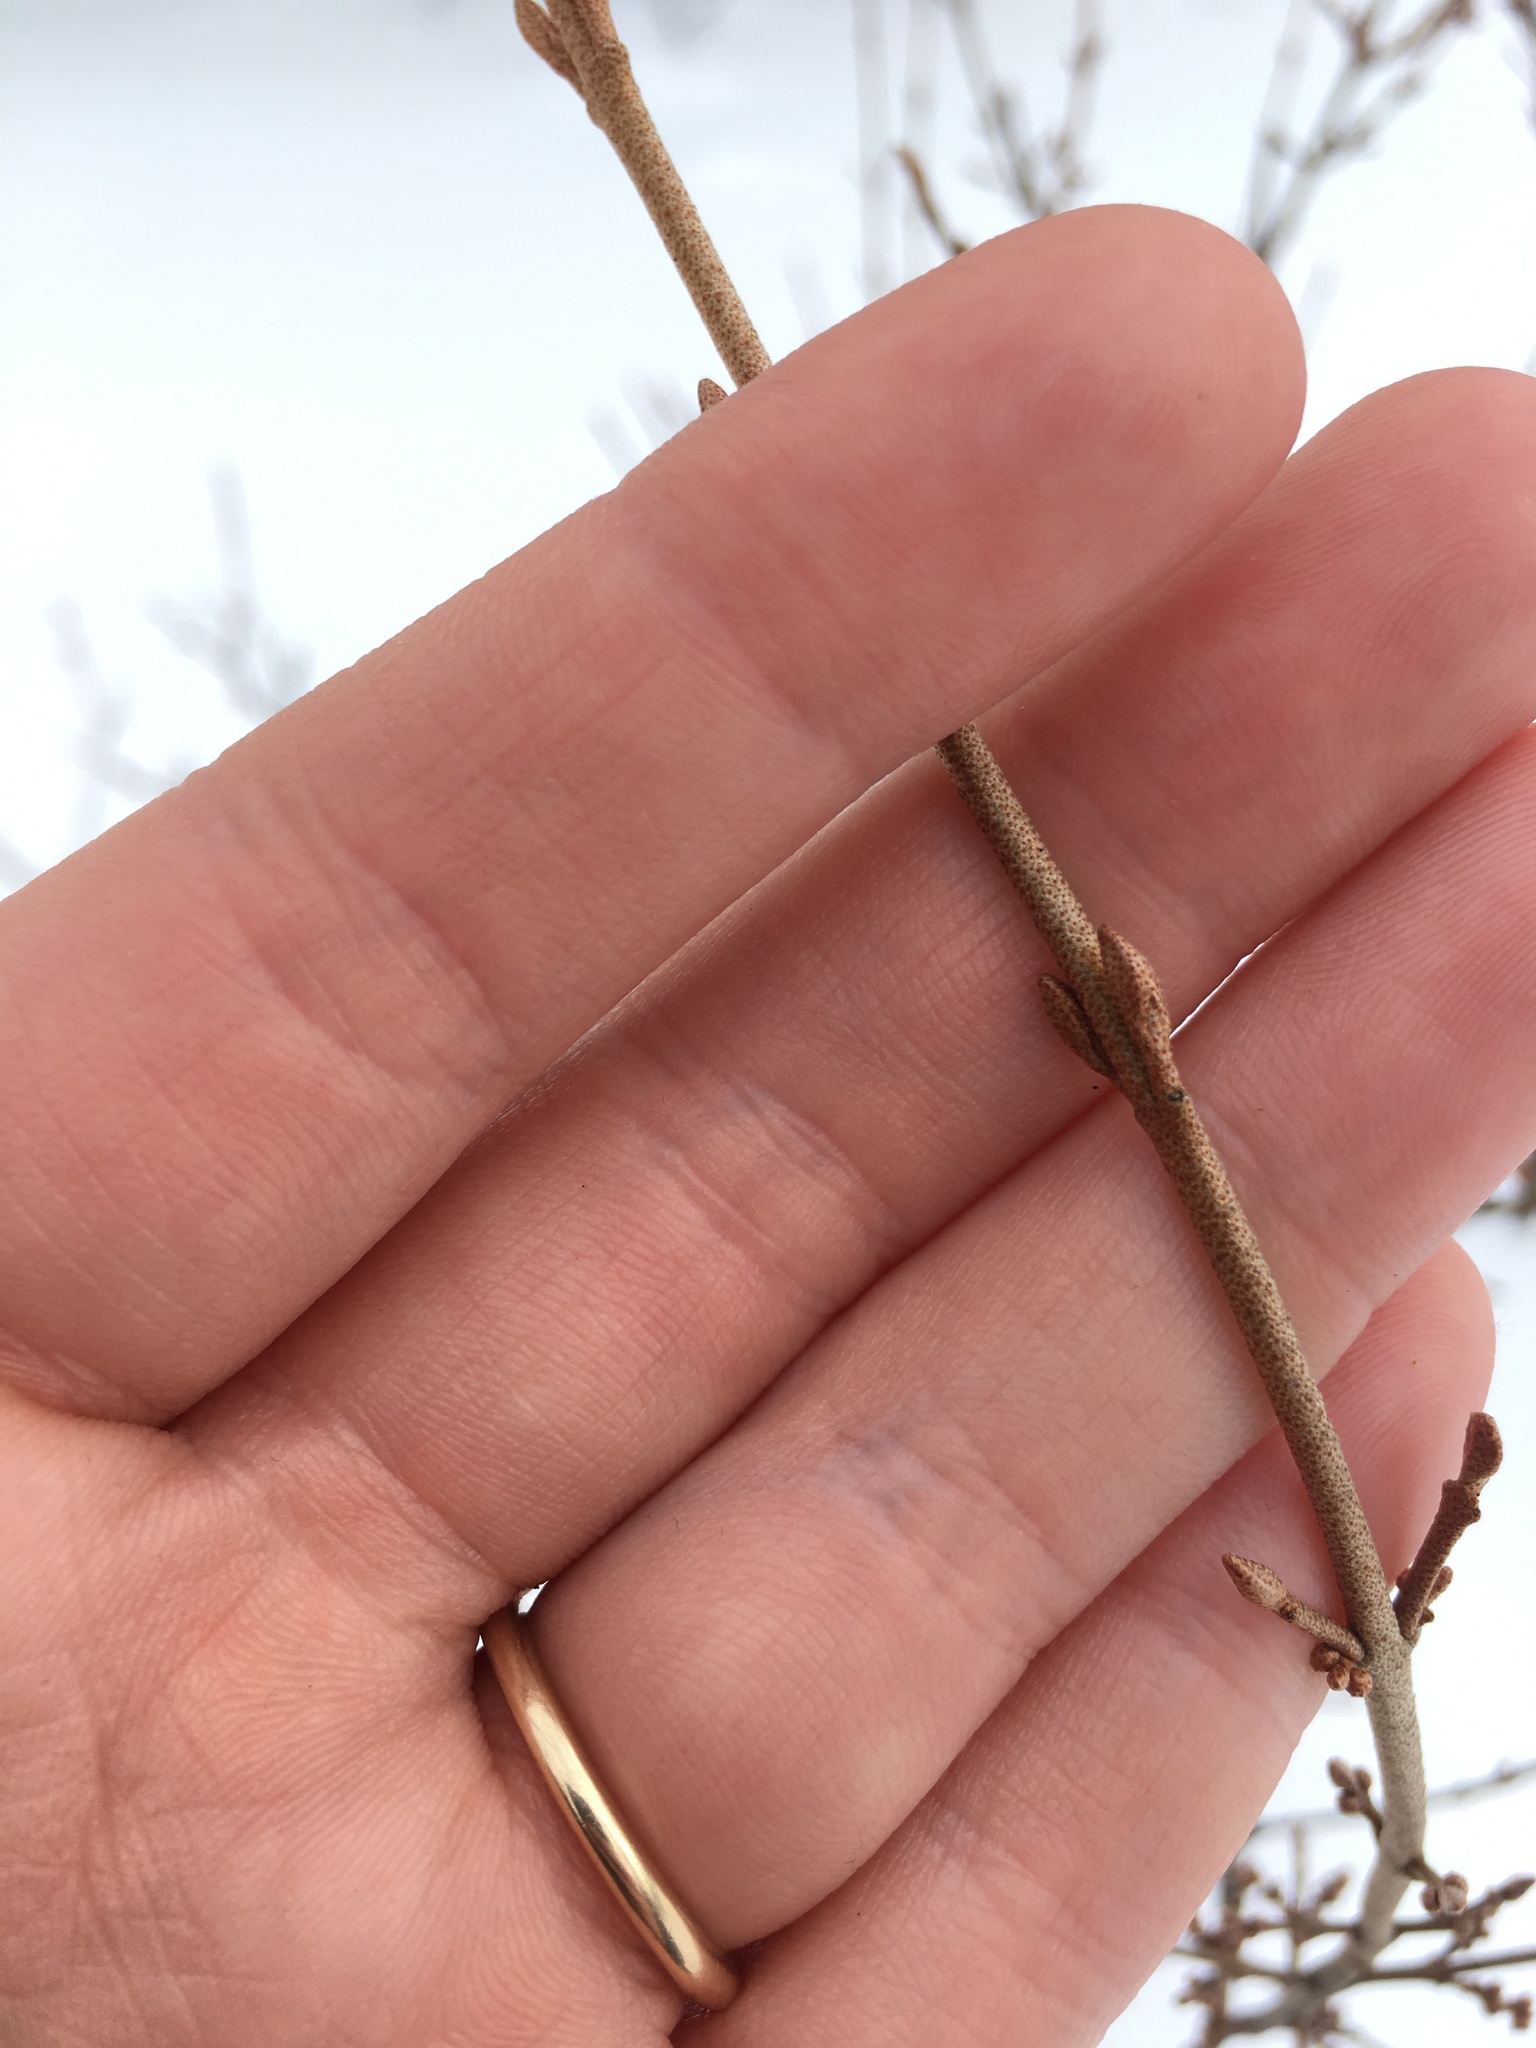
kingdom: Plantae
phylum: Tracheophyta
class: Magnoliopsida
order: Rosales
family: Elaeagnaceae
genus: Shepherdia
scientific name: Shepherdia canadensis
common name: Soapberry
